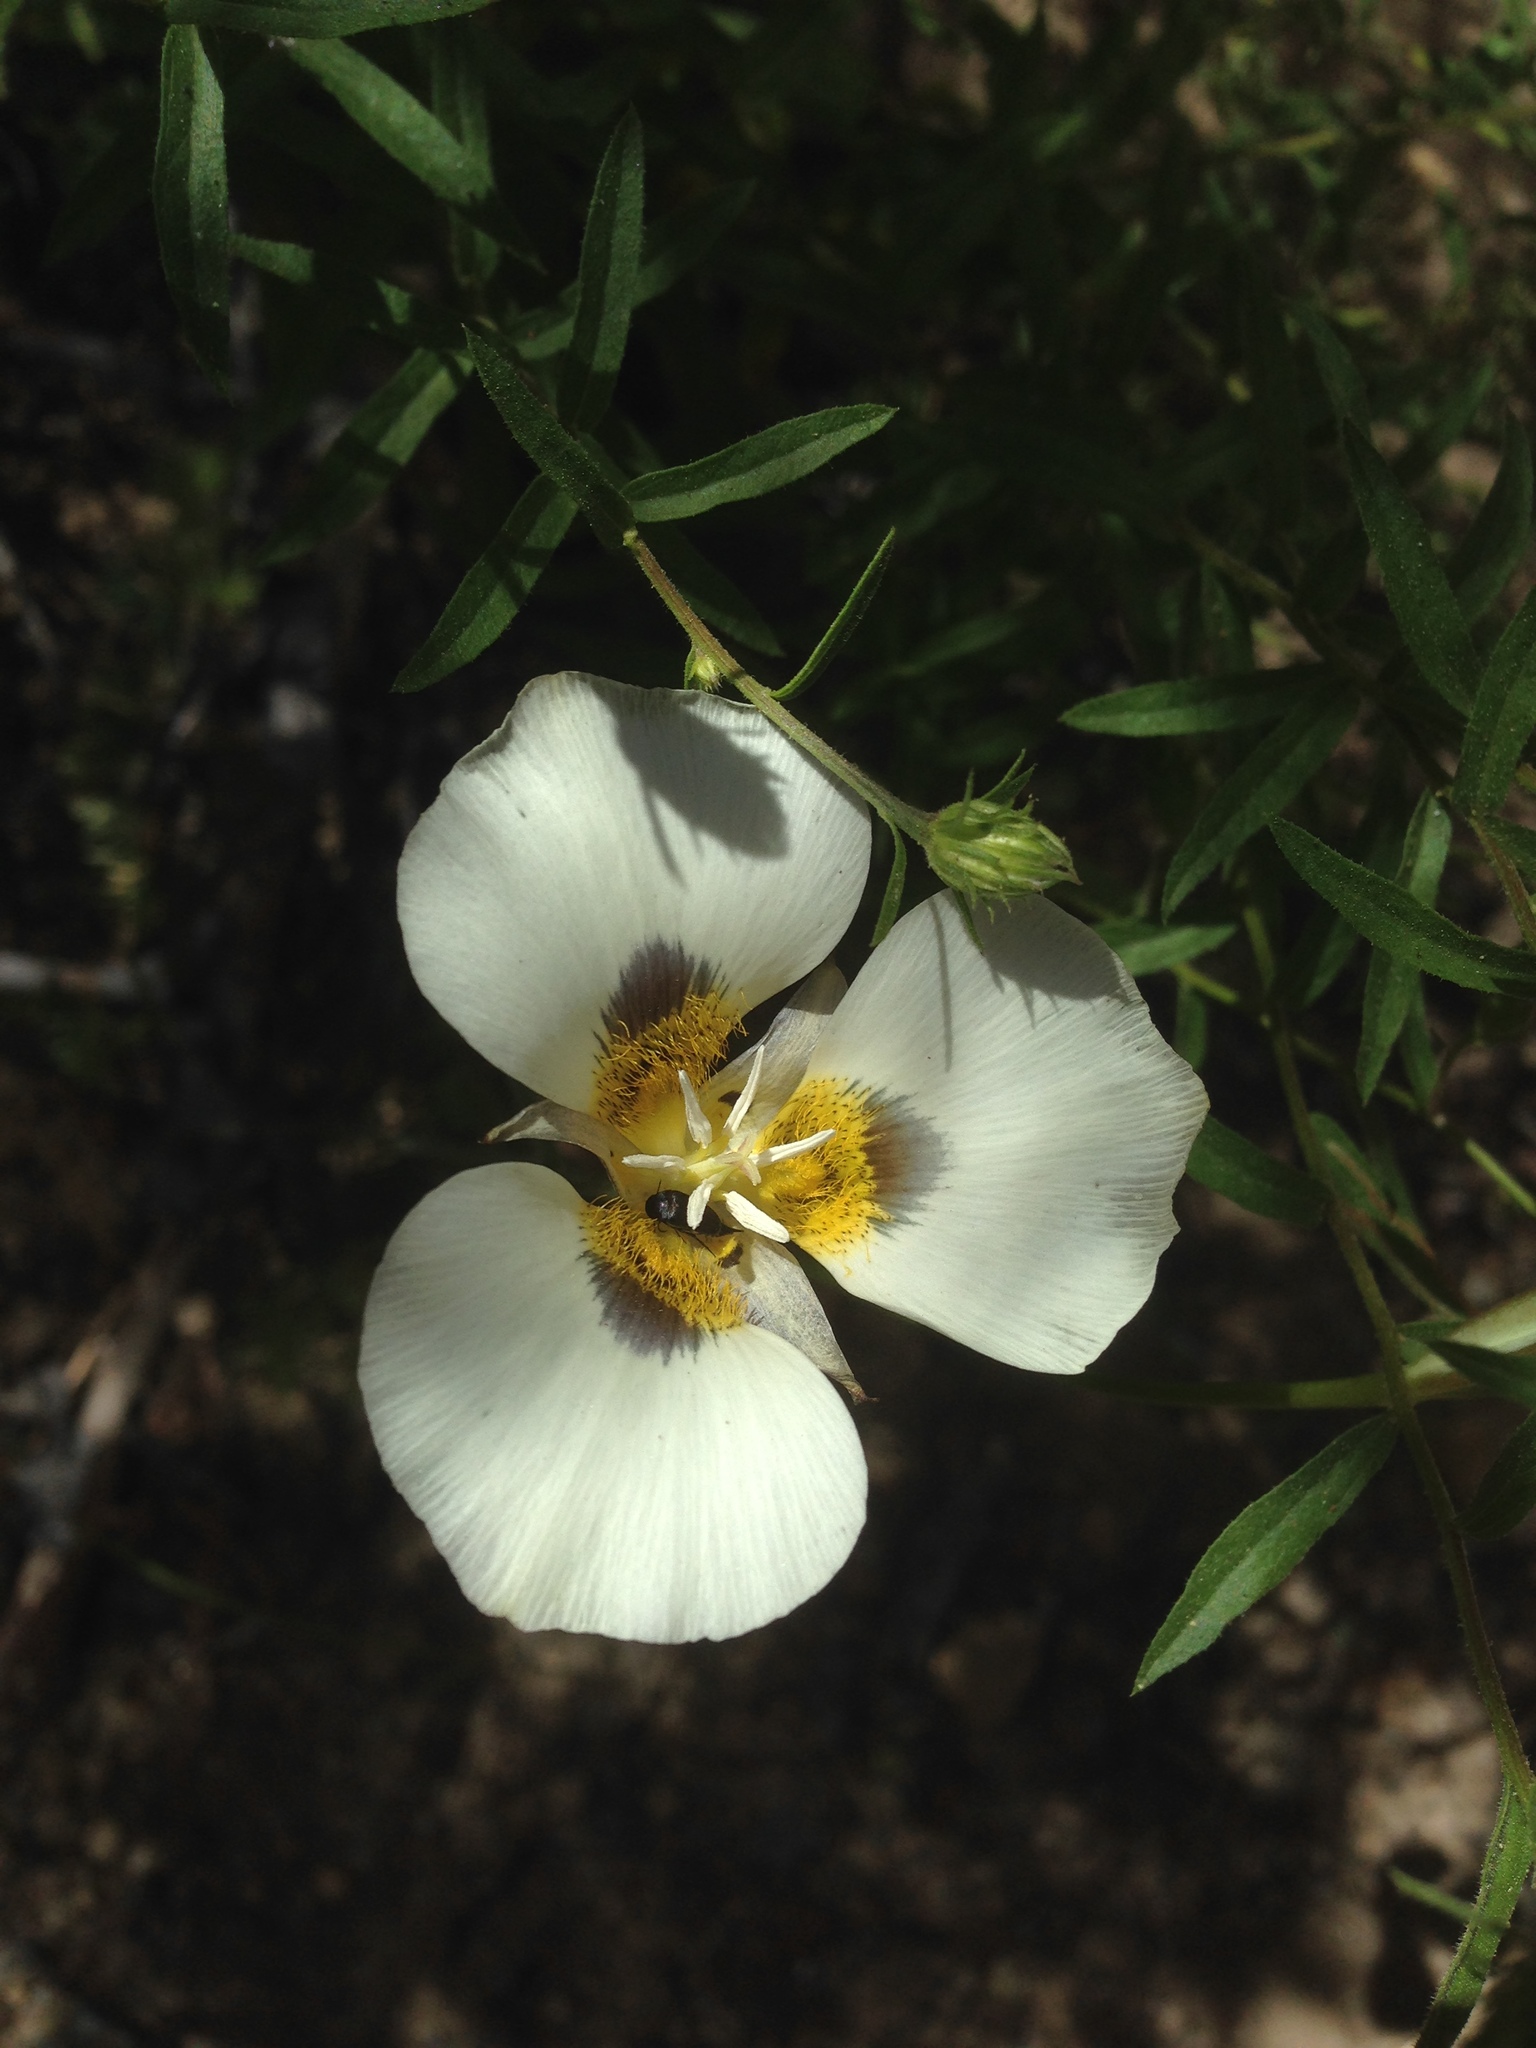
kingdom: Plantae
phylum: Tracheophyta
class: Liliopsida
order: Liliales
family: Liliaceae
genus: Calochortus
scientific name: Calochortus leichtlinii
